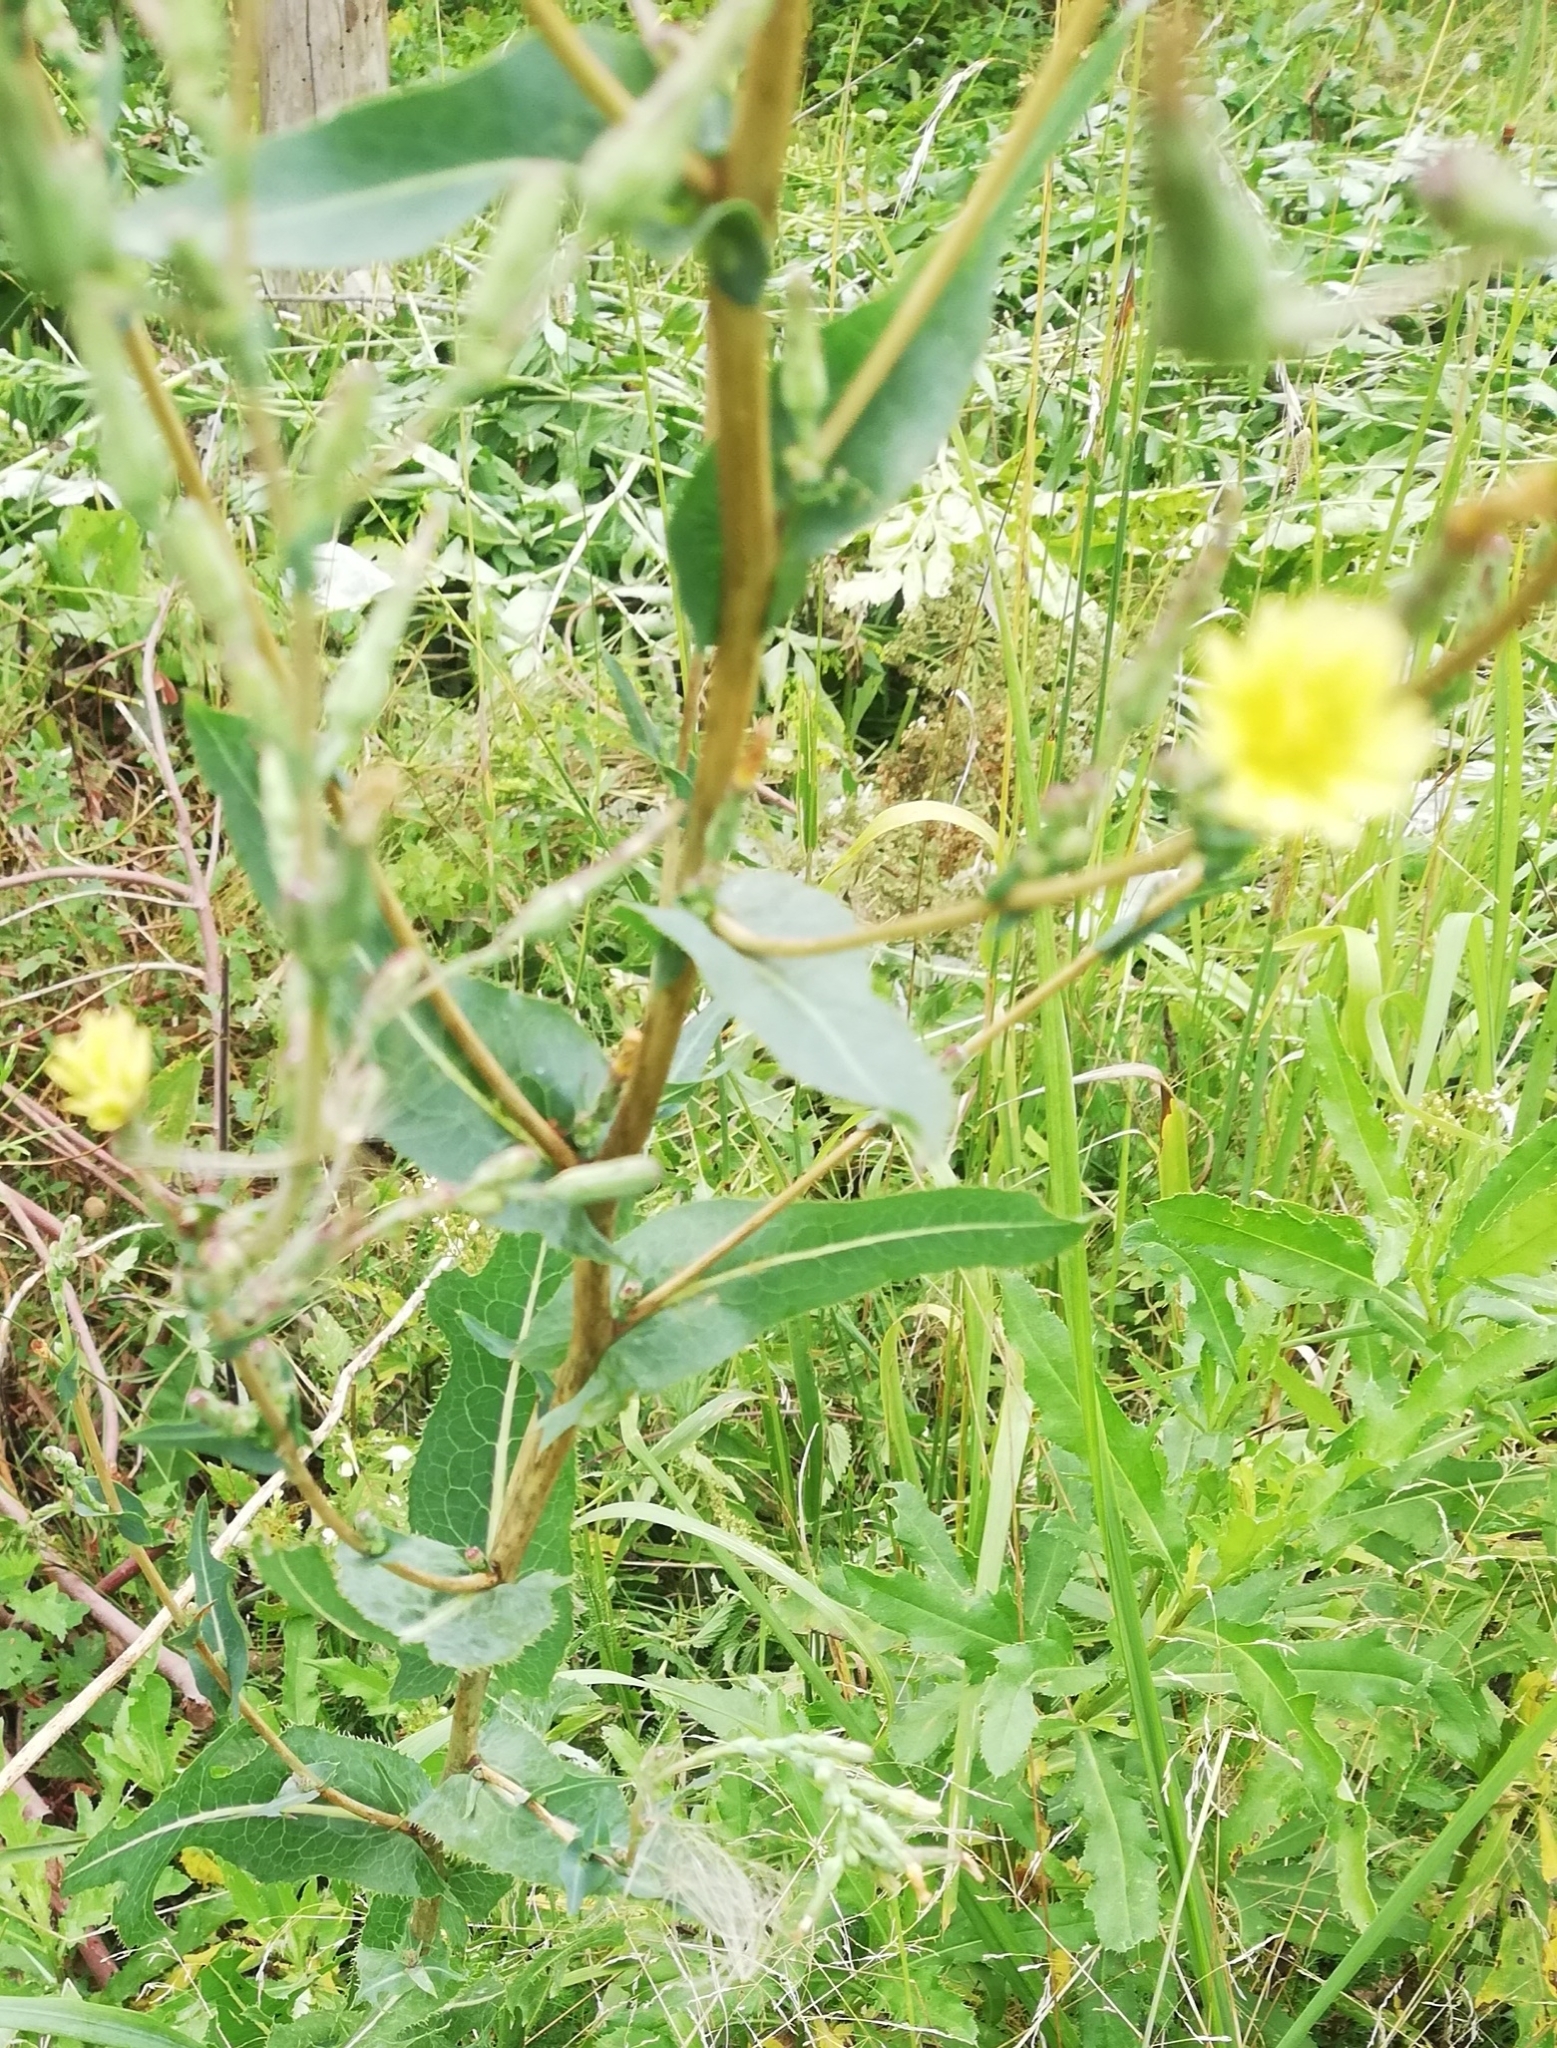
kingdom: Plantae
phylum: Tracheophyta
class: Magnoliopsida
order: Asterales
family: Asteraceae
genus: Lactuca
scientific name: Lactuca serriola
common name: Prickly lettuce
